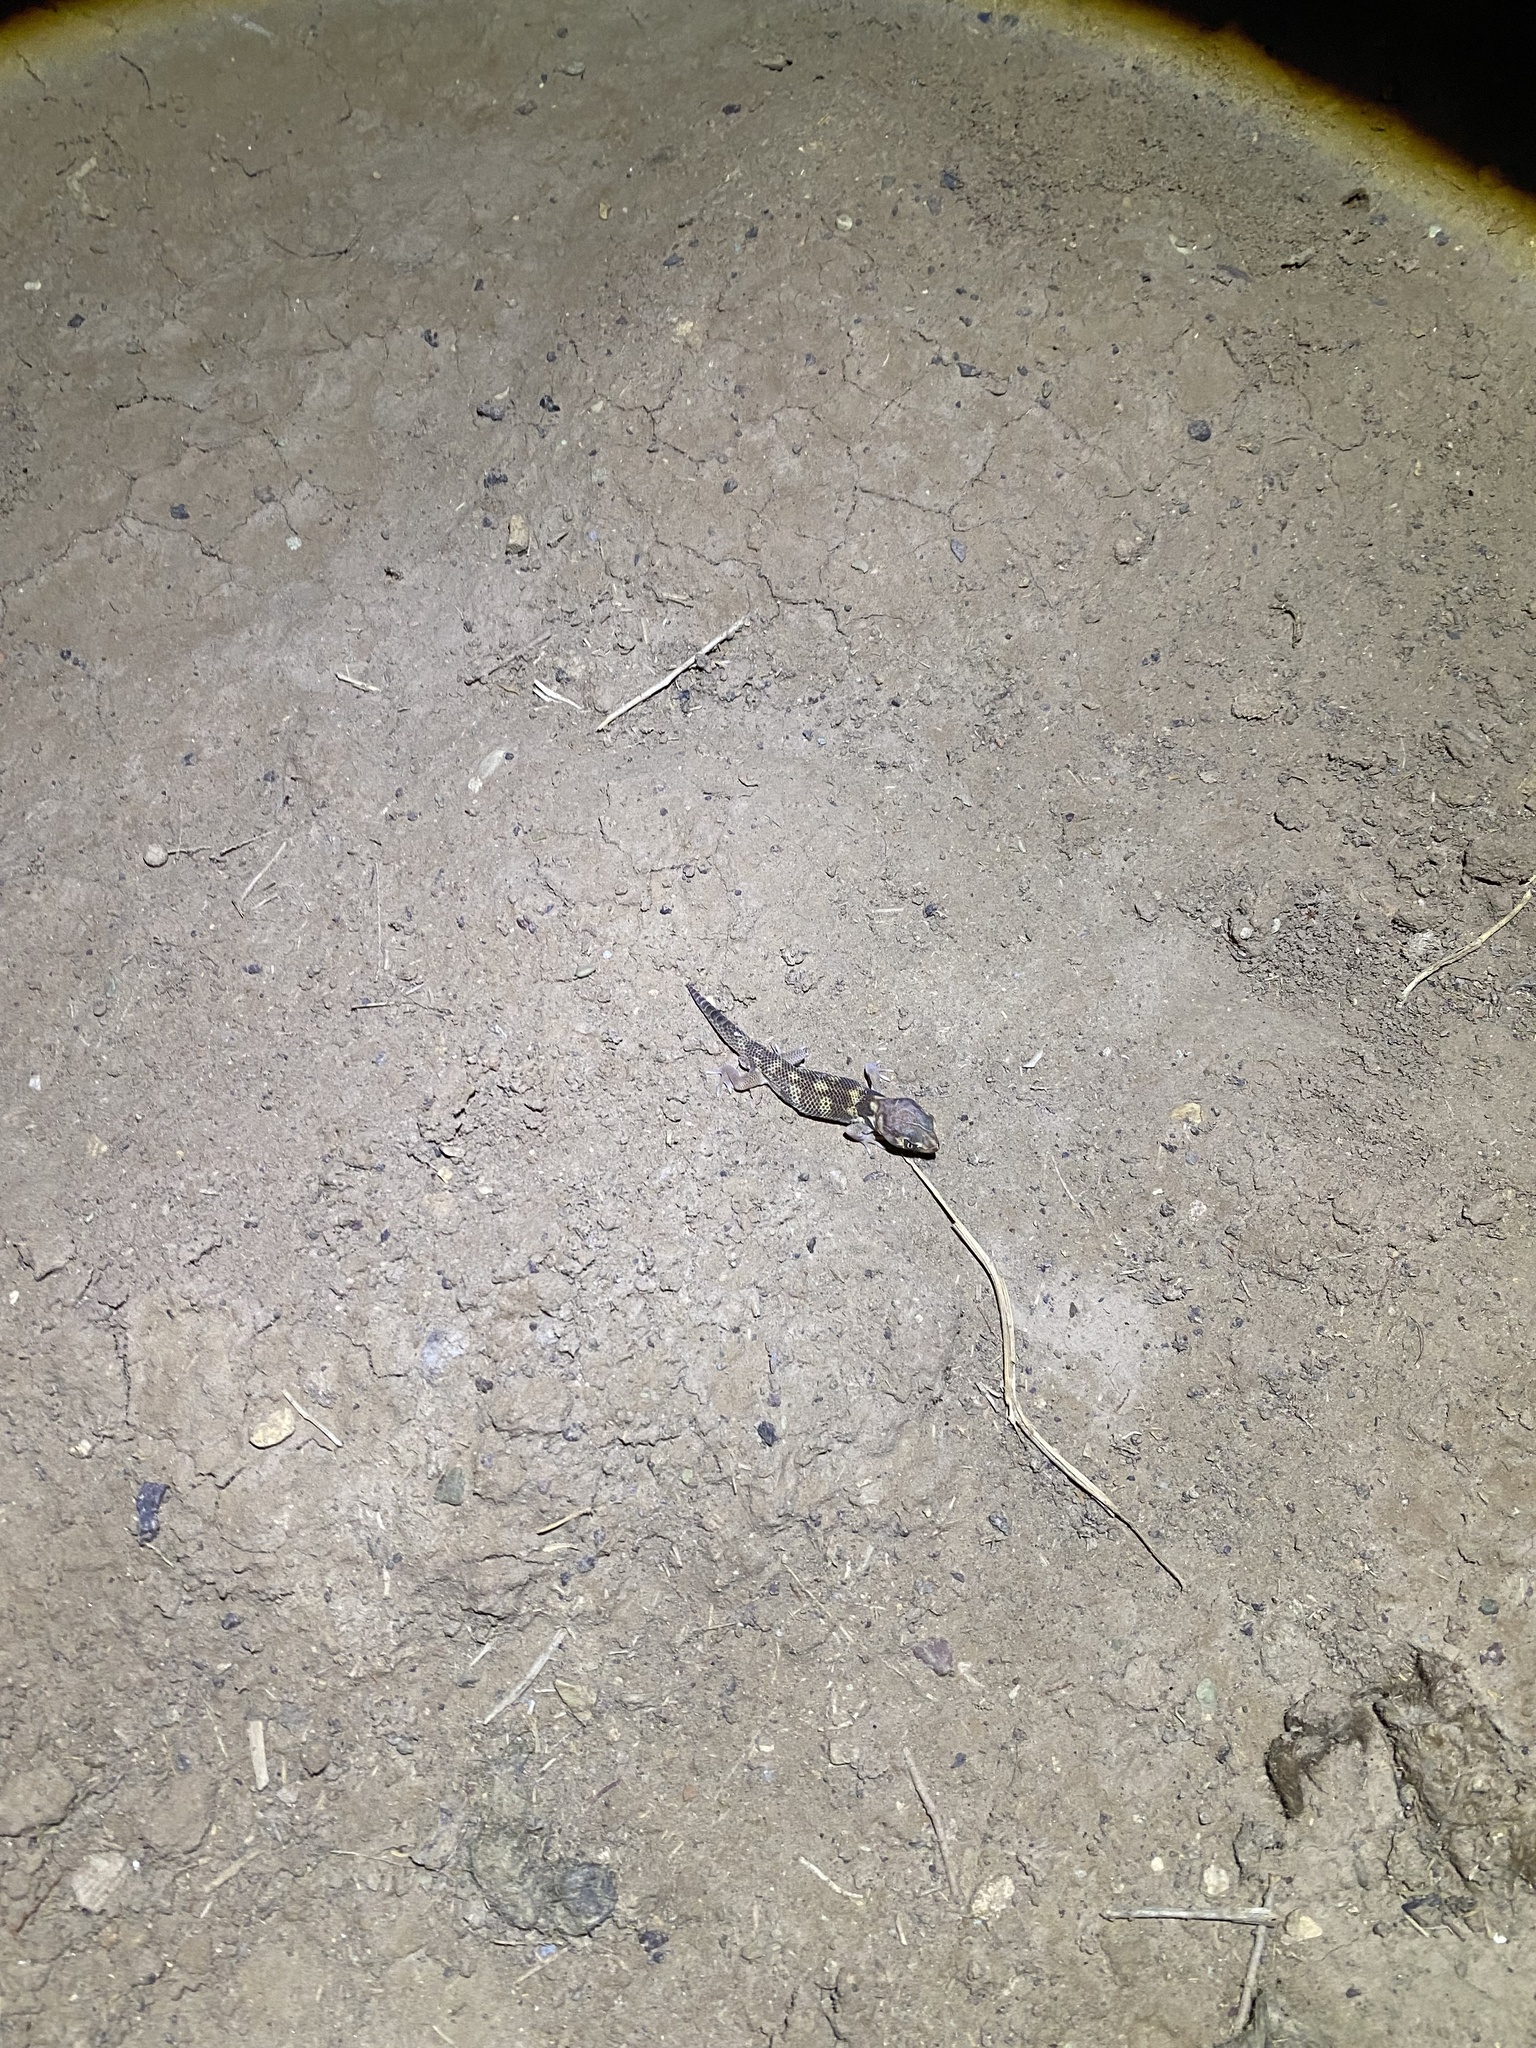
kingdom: Animalia
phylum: Chordata
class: Squamata
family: Sphaerodactylidae
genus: Teratoscincus
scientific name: Teratoscincus bedriagai
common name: Bedriaga's plate-tailed gecko
